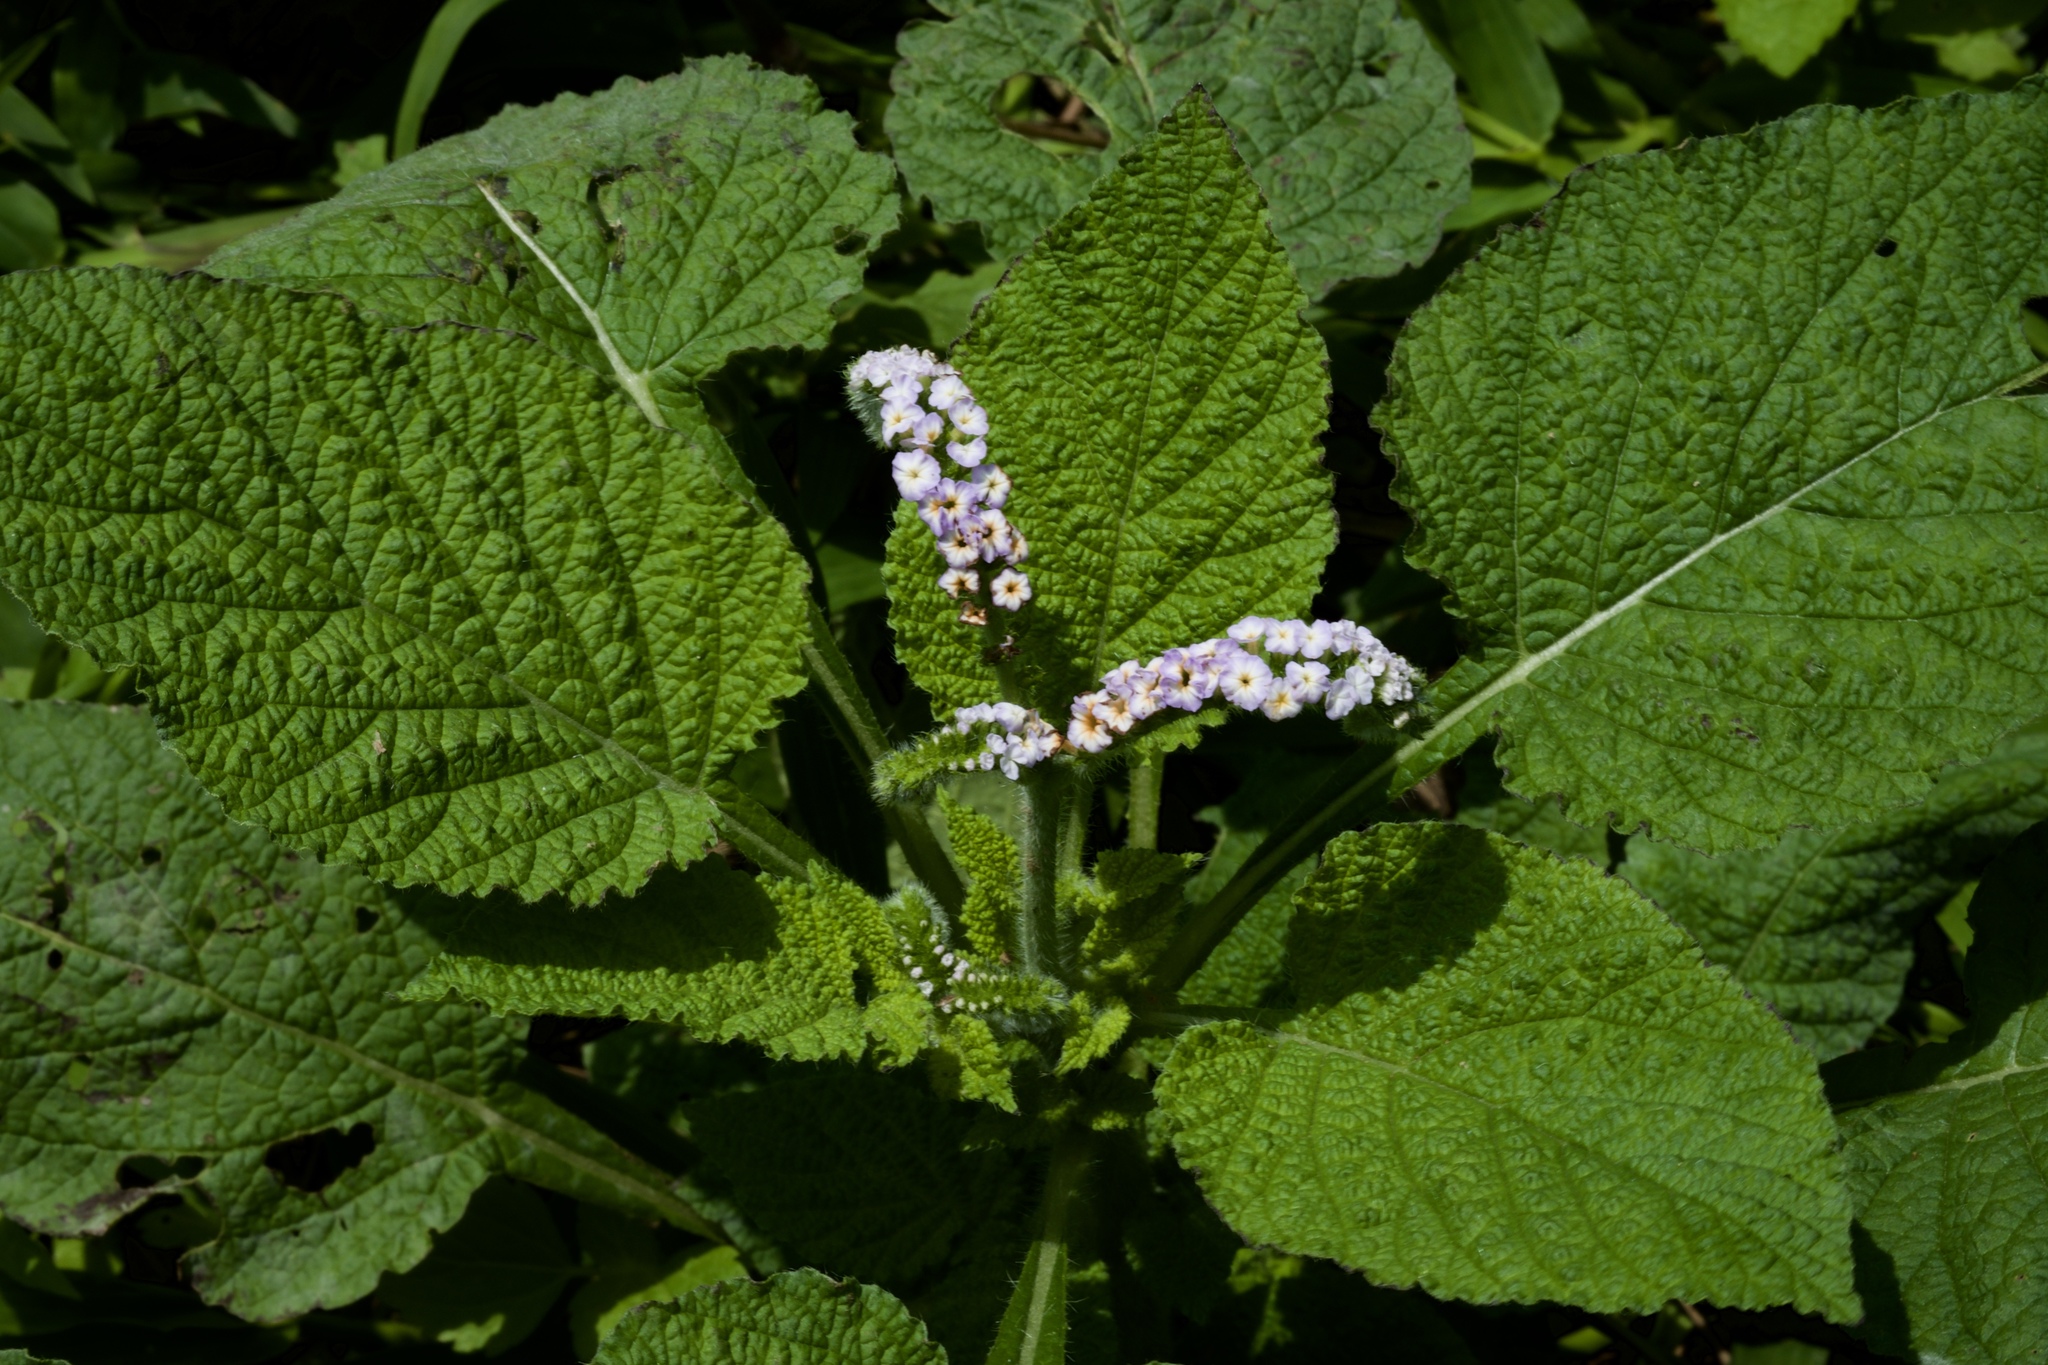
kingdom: Plantae
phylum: Tracheophyta
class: Magnoliopsida
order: Boraginales
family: Heliotropiaceae
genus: Heliotropium
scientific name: Heliotropium indicum
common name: Indian heliotrope
